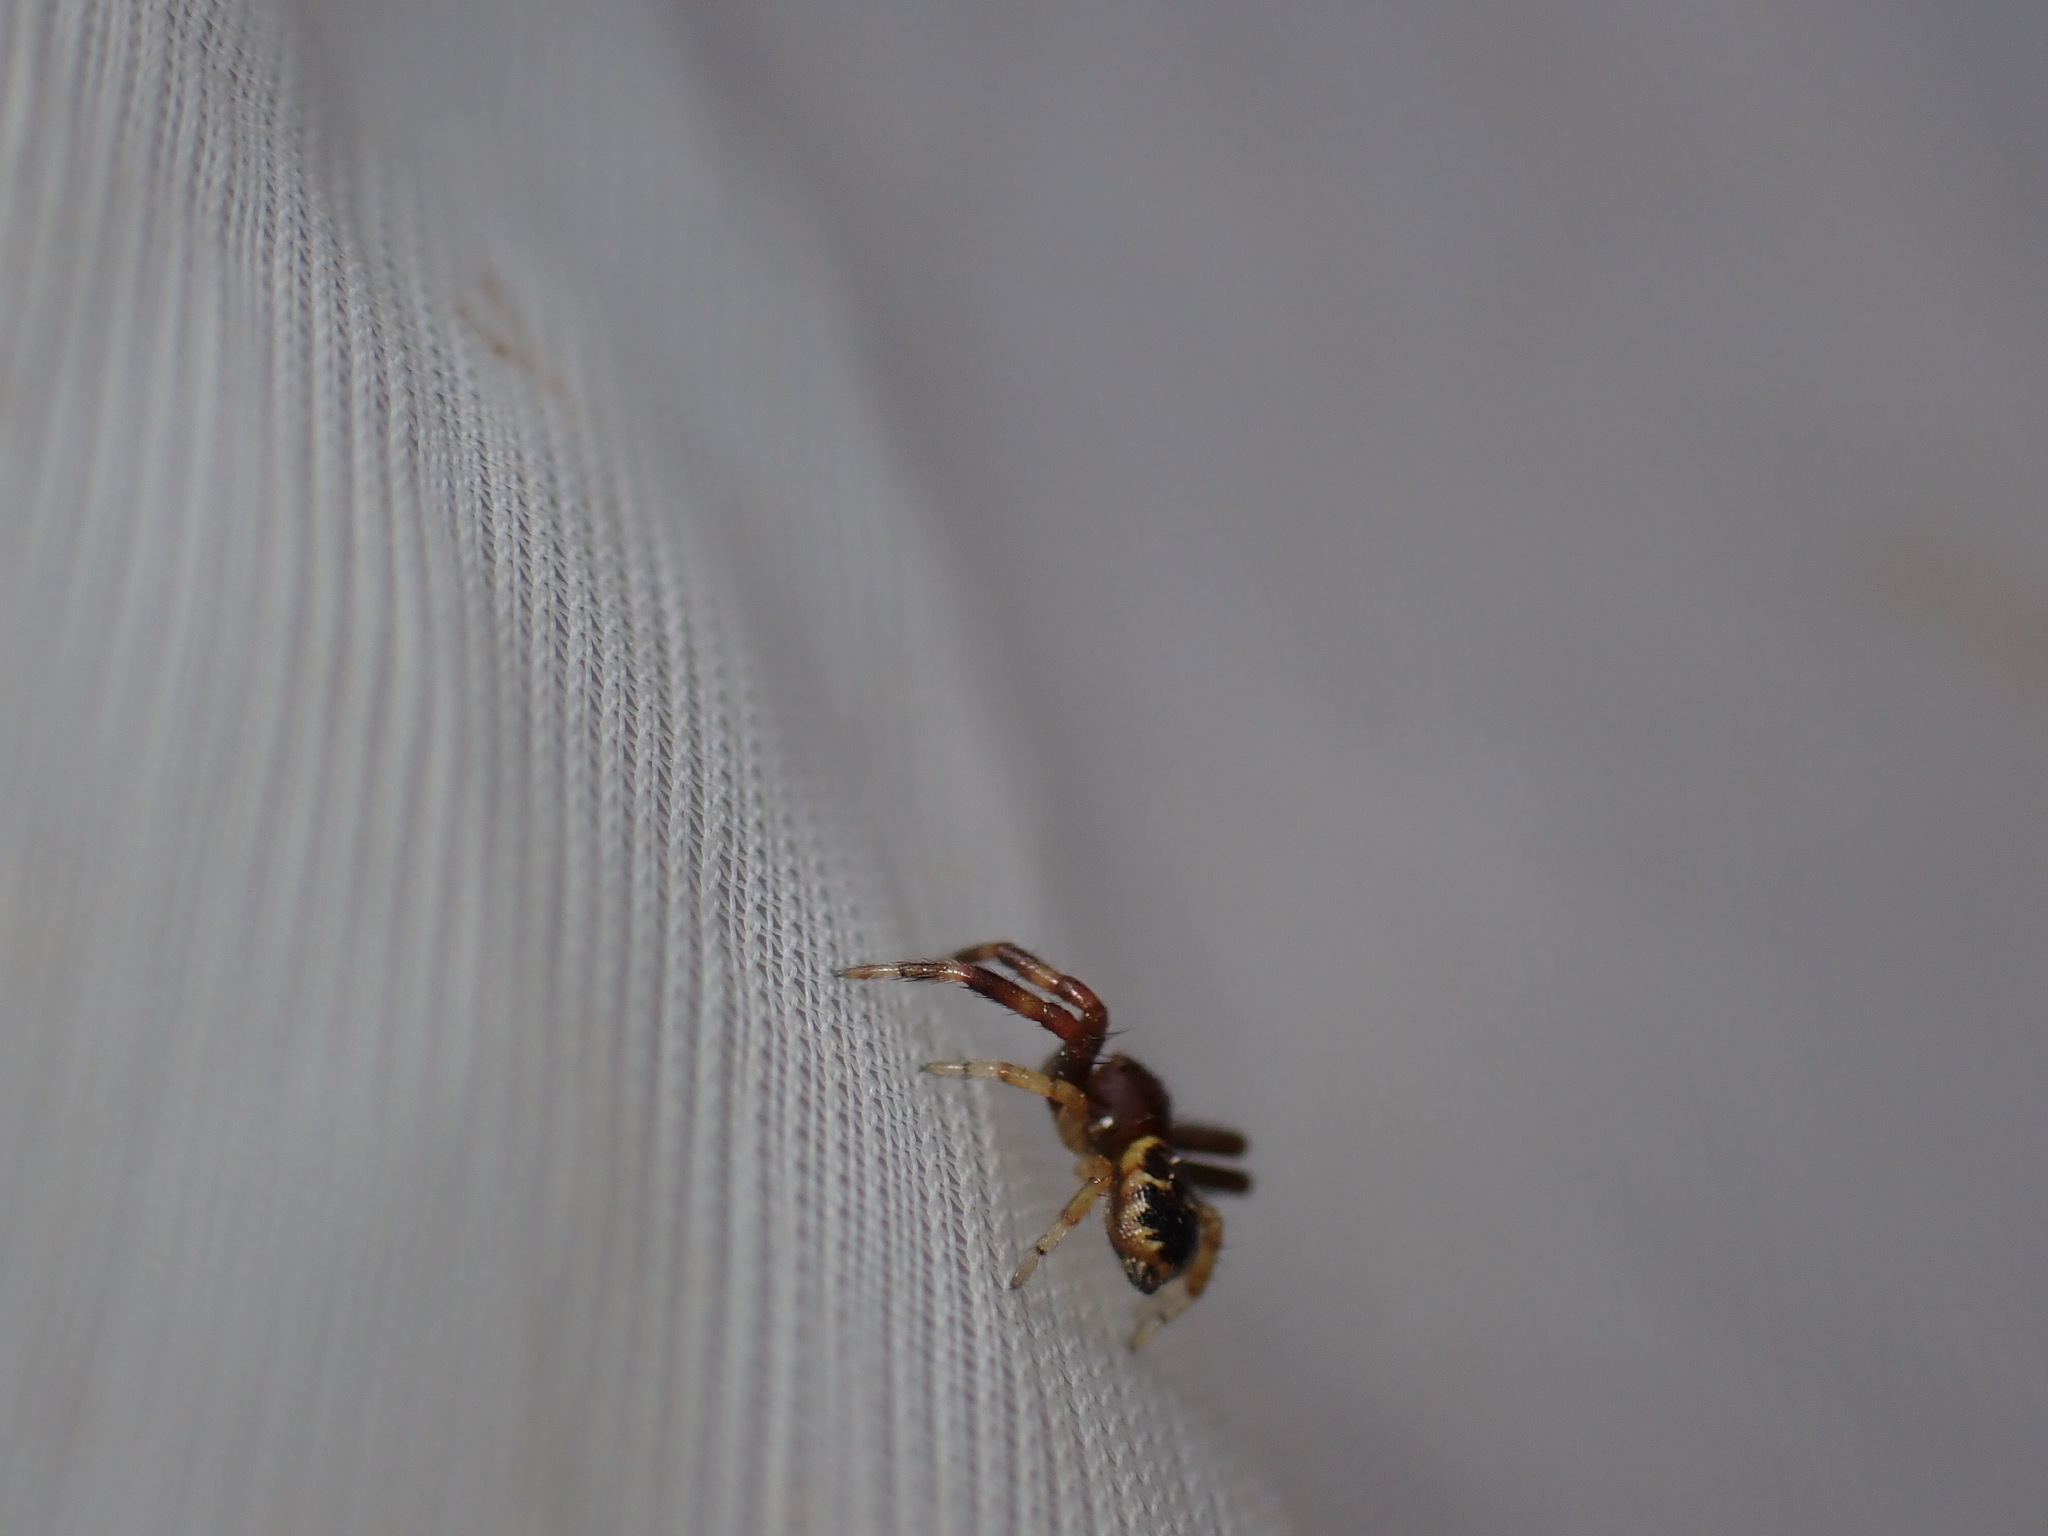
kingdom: Animalia
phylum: Arthropoda
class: Arachnida
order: Araneae
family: Thomisidae
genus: Synema
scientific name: Synema globosum
